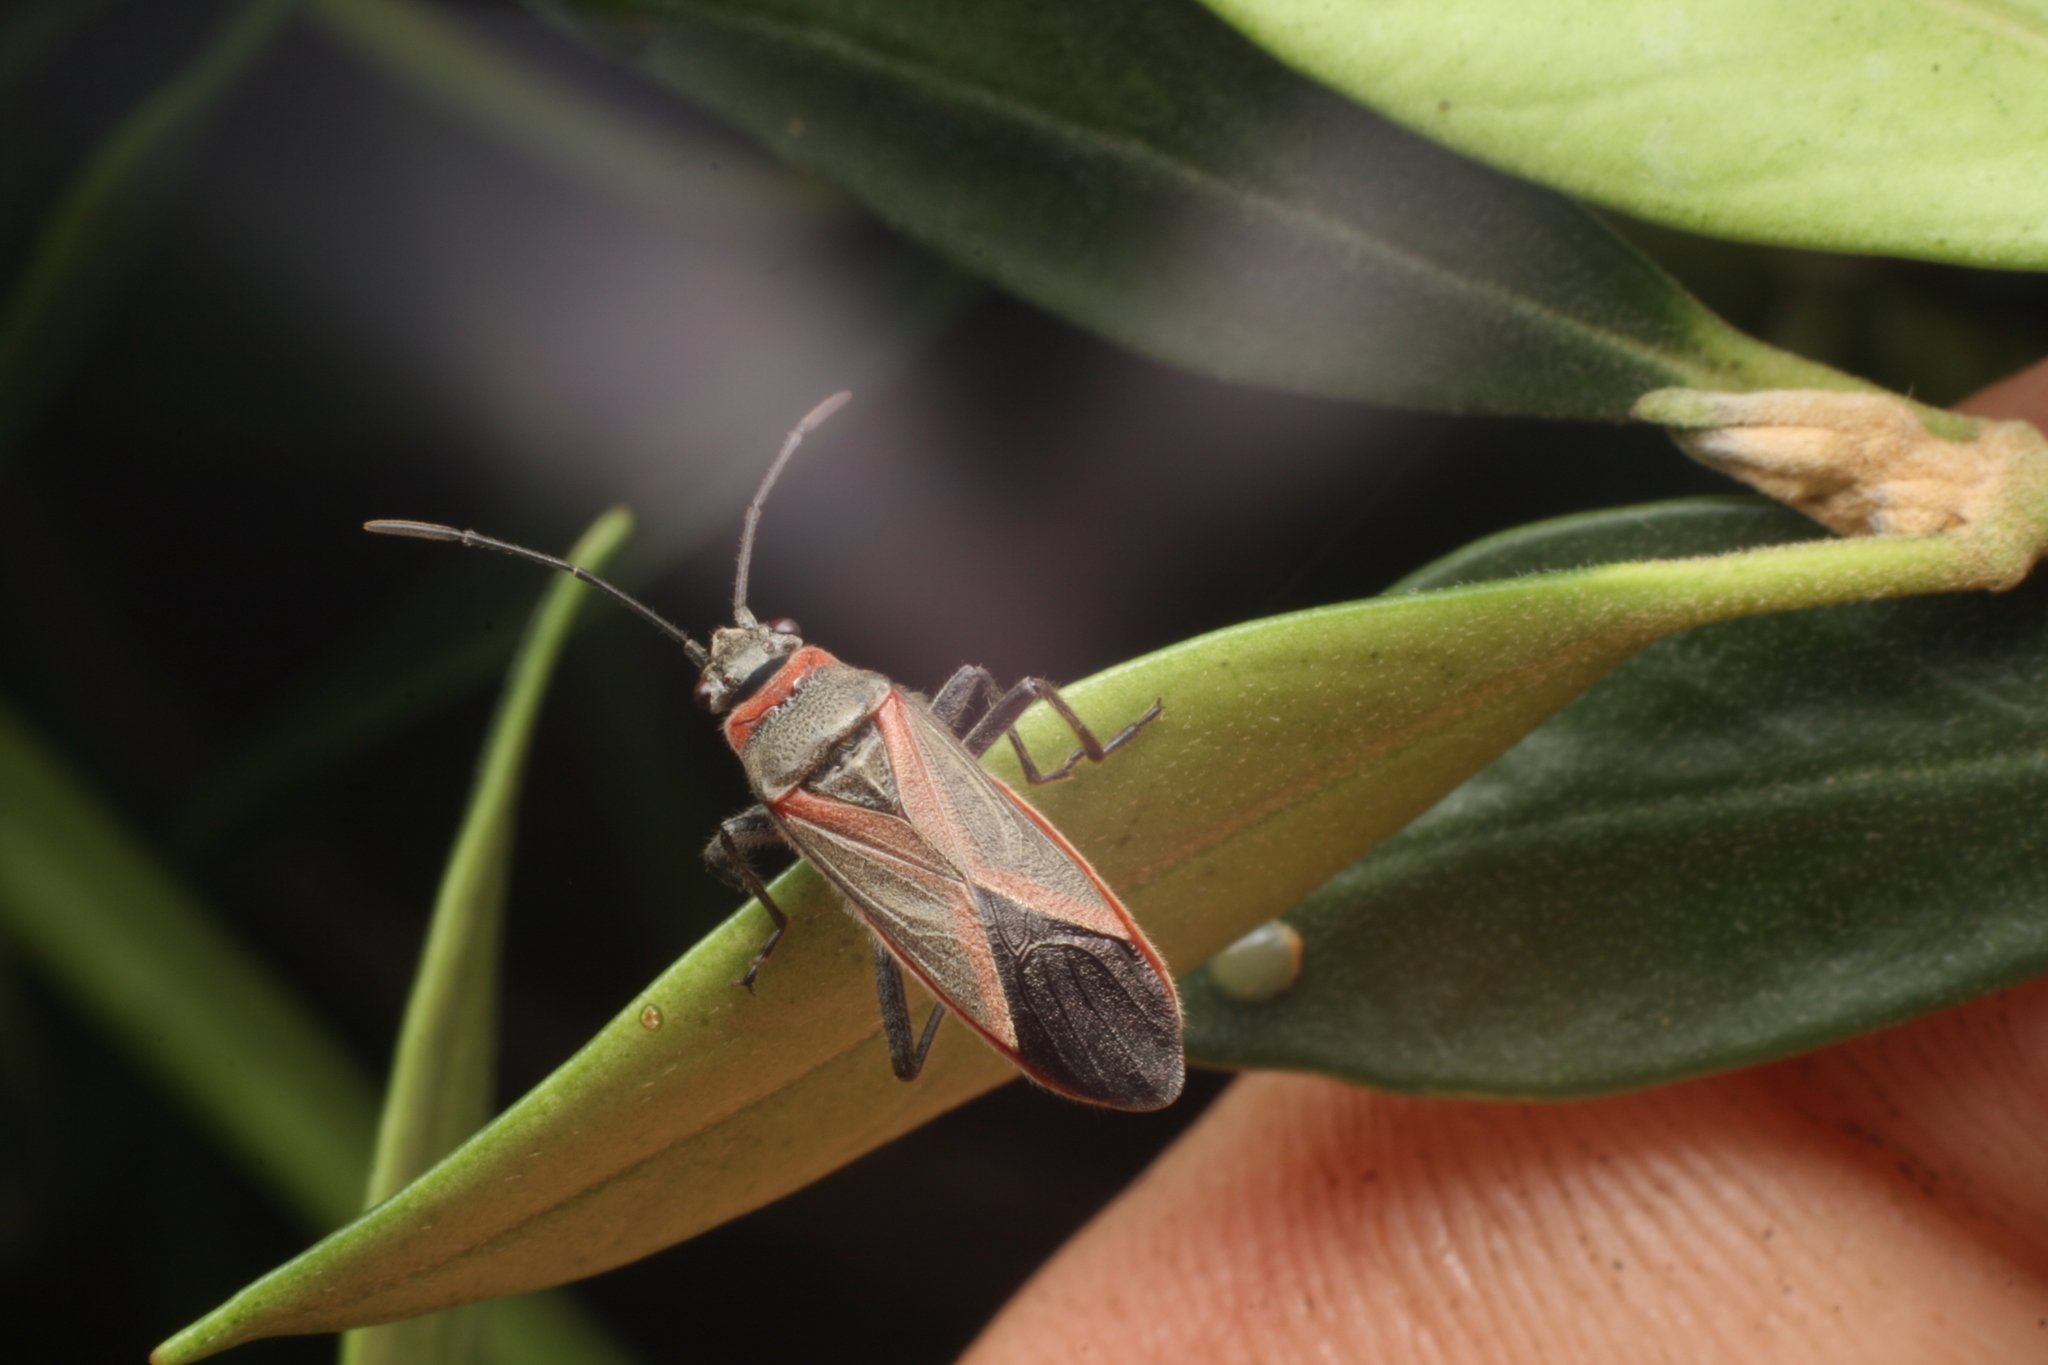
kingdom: Animalia
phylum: Arthropoda
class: Insecta
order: Hemiptera
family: Lygaeidae
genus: Arocatus
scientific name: Arocatus rusticus
